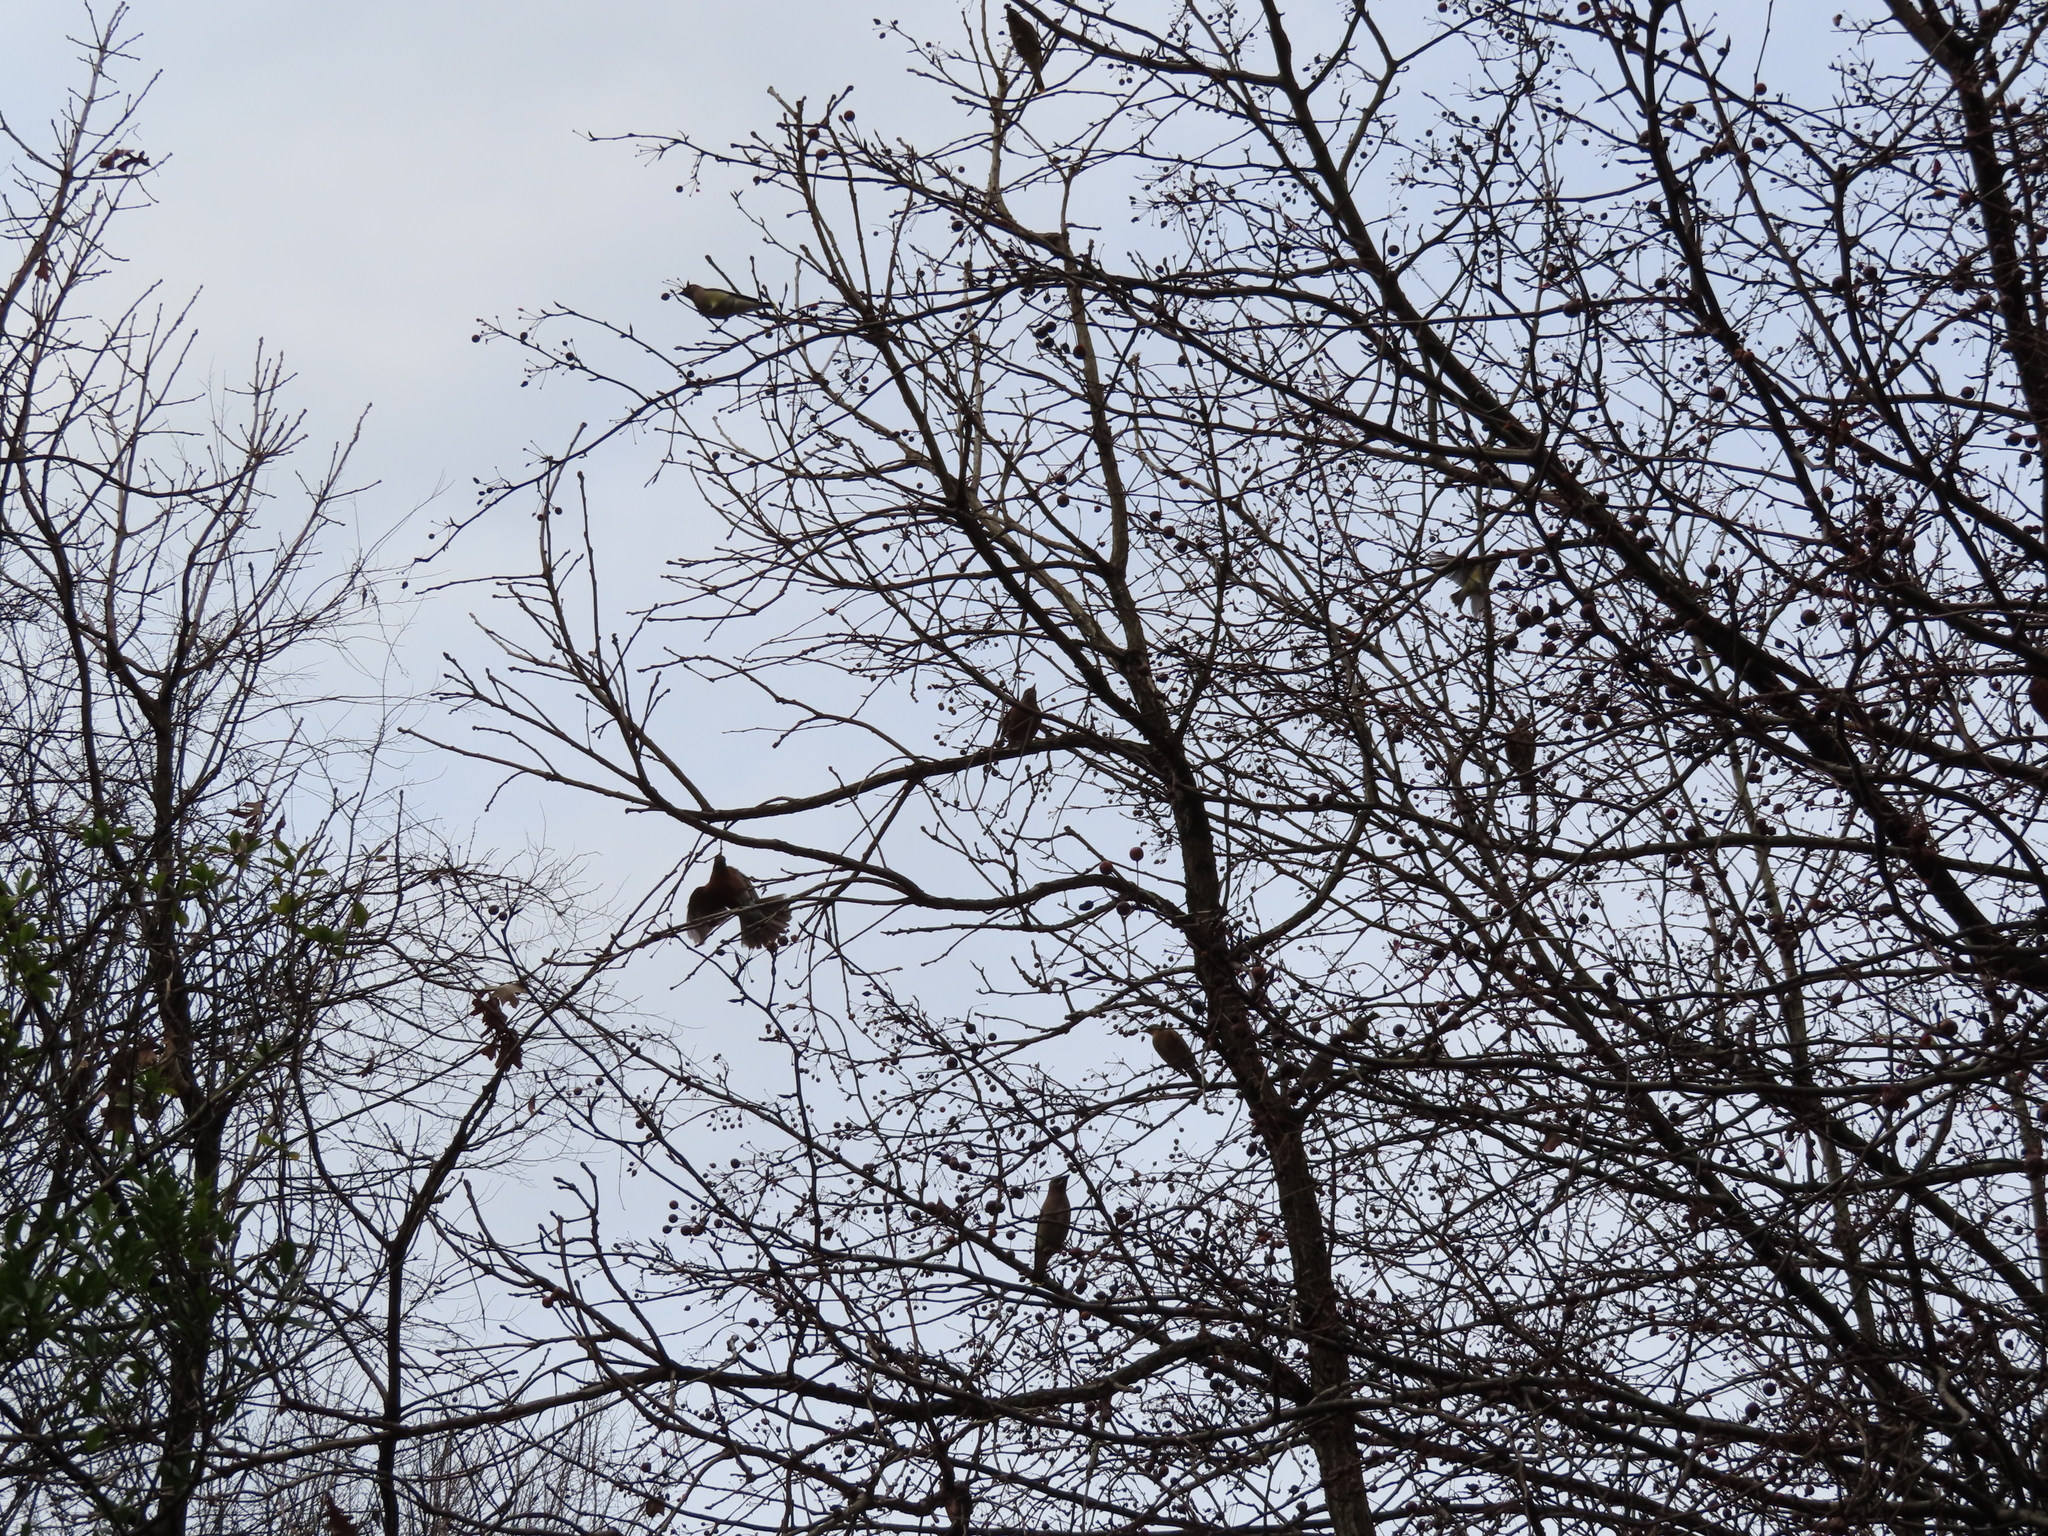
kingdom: Animalia
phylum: Chordata
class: Aves
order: Passeriformes
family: Turdidae
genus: Turdus
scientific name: Turdus migratorius
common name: American robin
